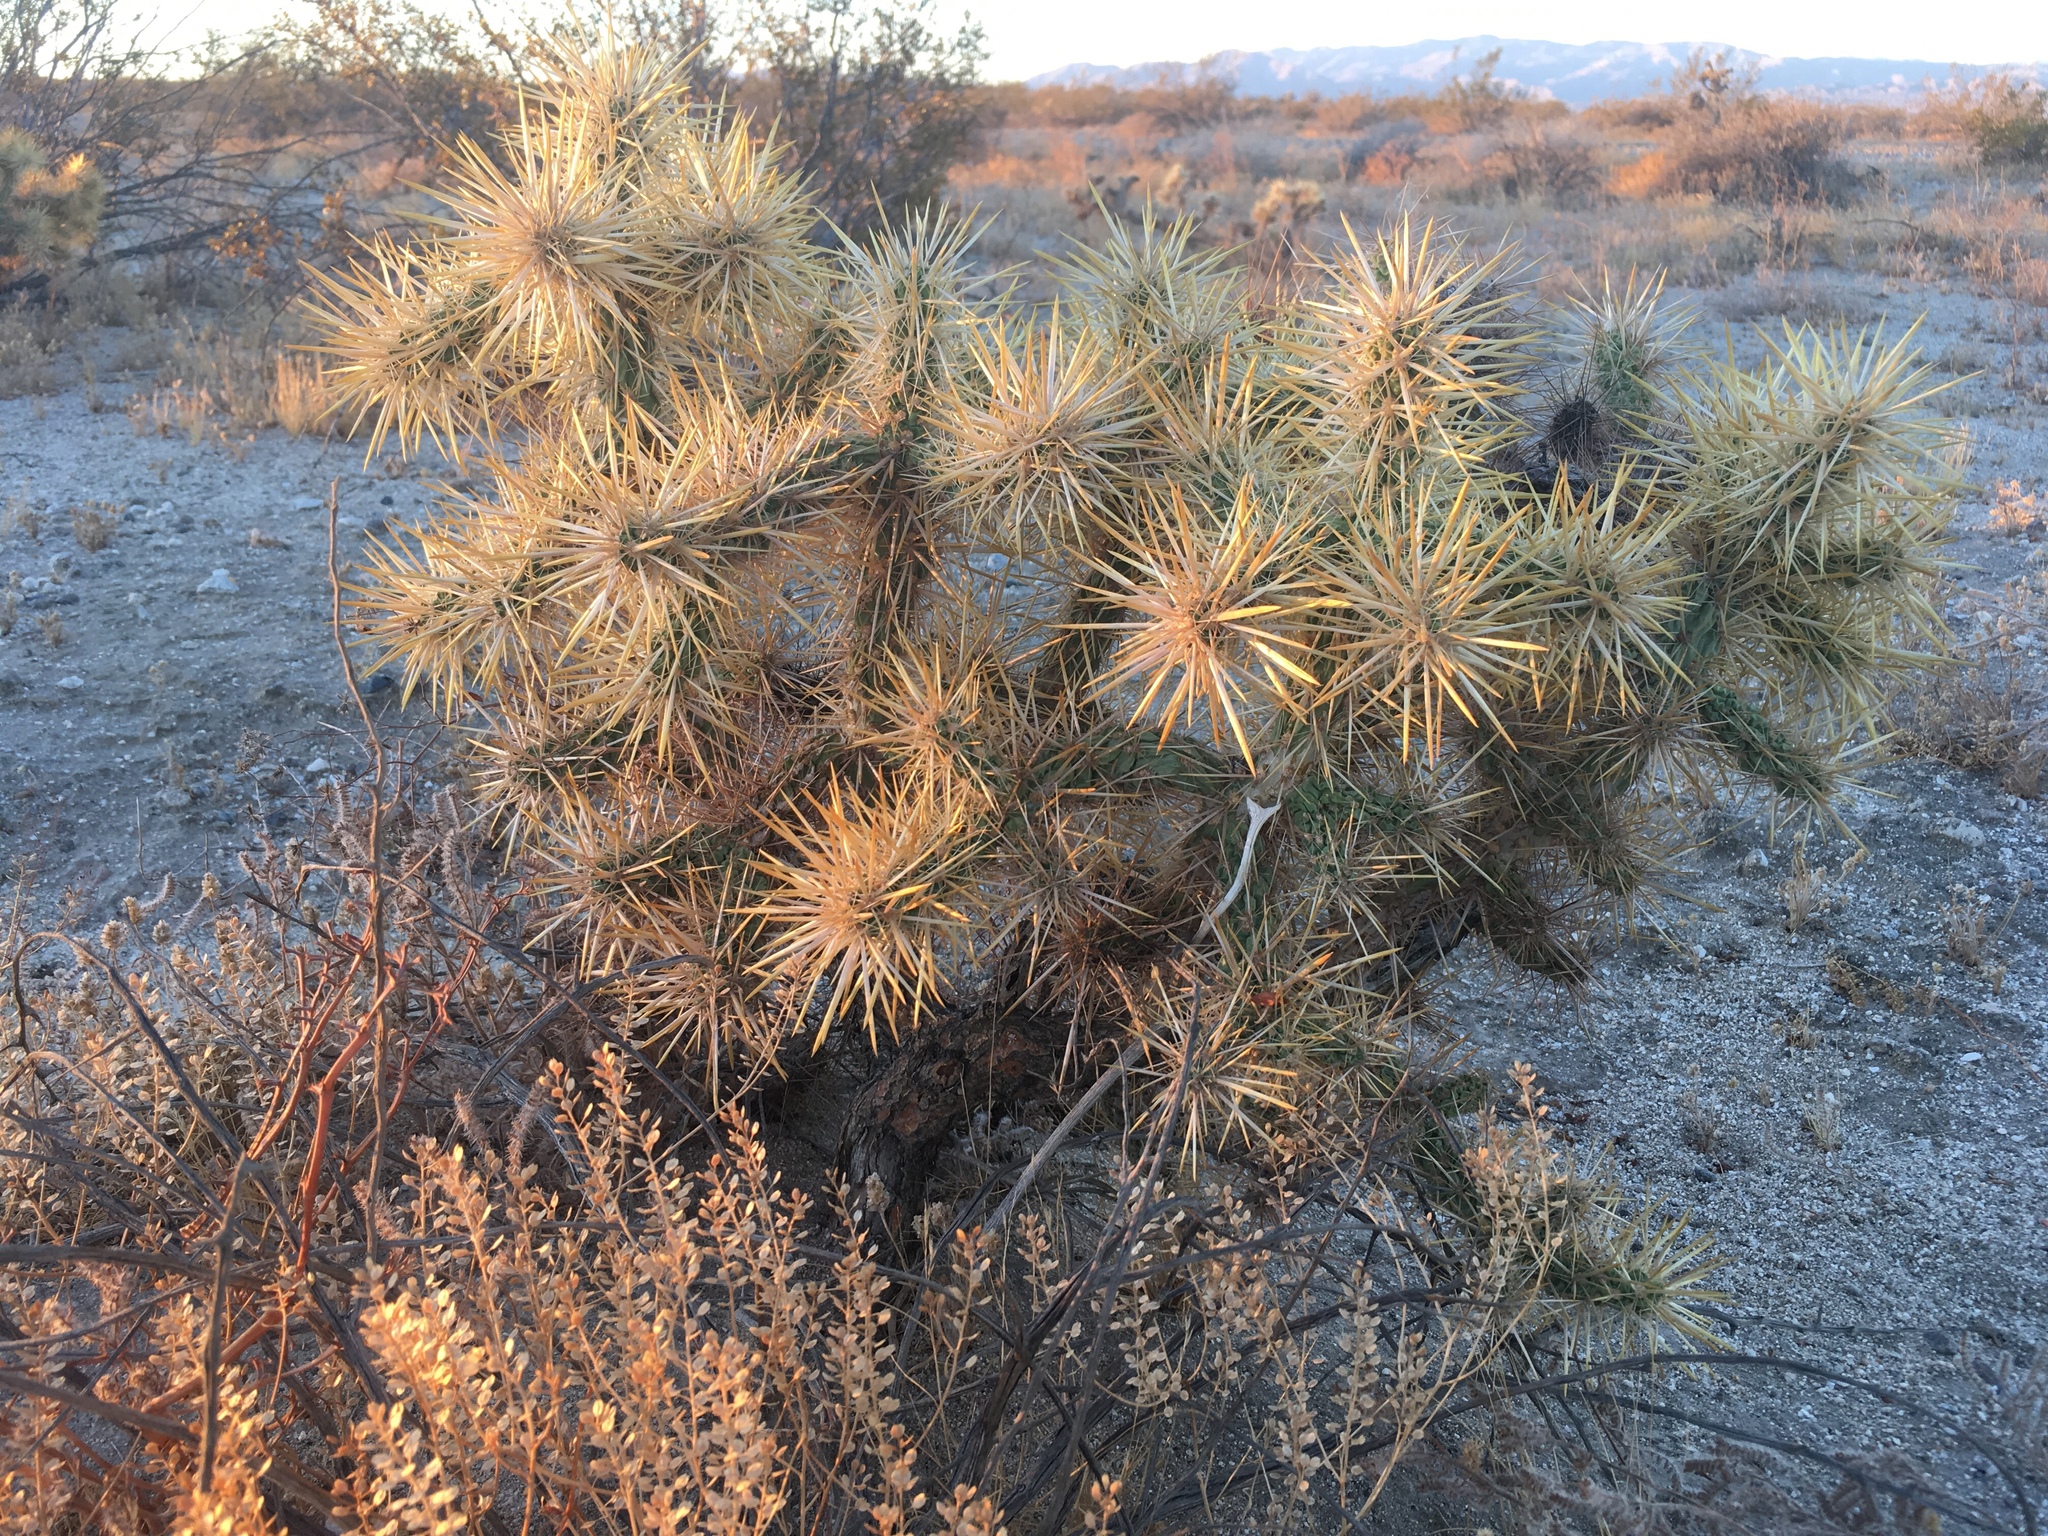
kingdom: Plantae
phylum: Tracheophyta
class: Magnoliopsida
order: Caryophyllales
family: Cactaceae
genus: Cylindropuntia
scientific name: Cylindropuntia echinocarpa
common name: Ground cholla
